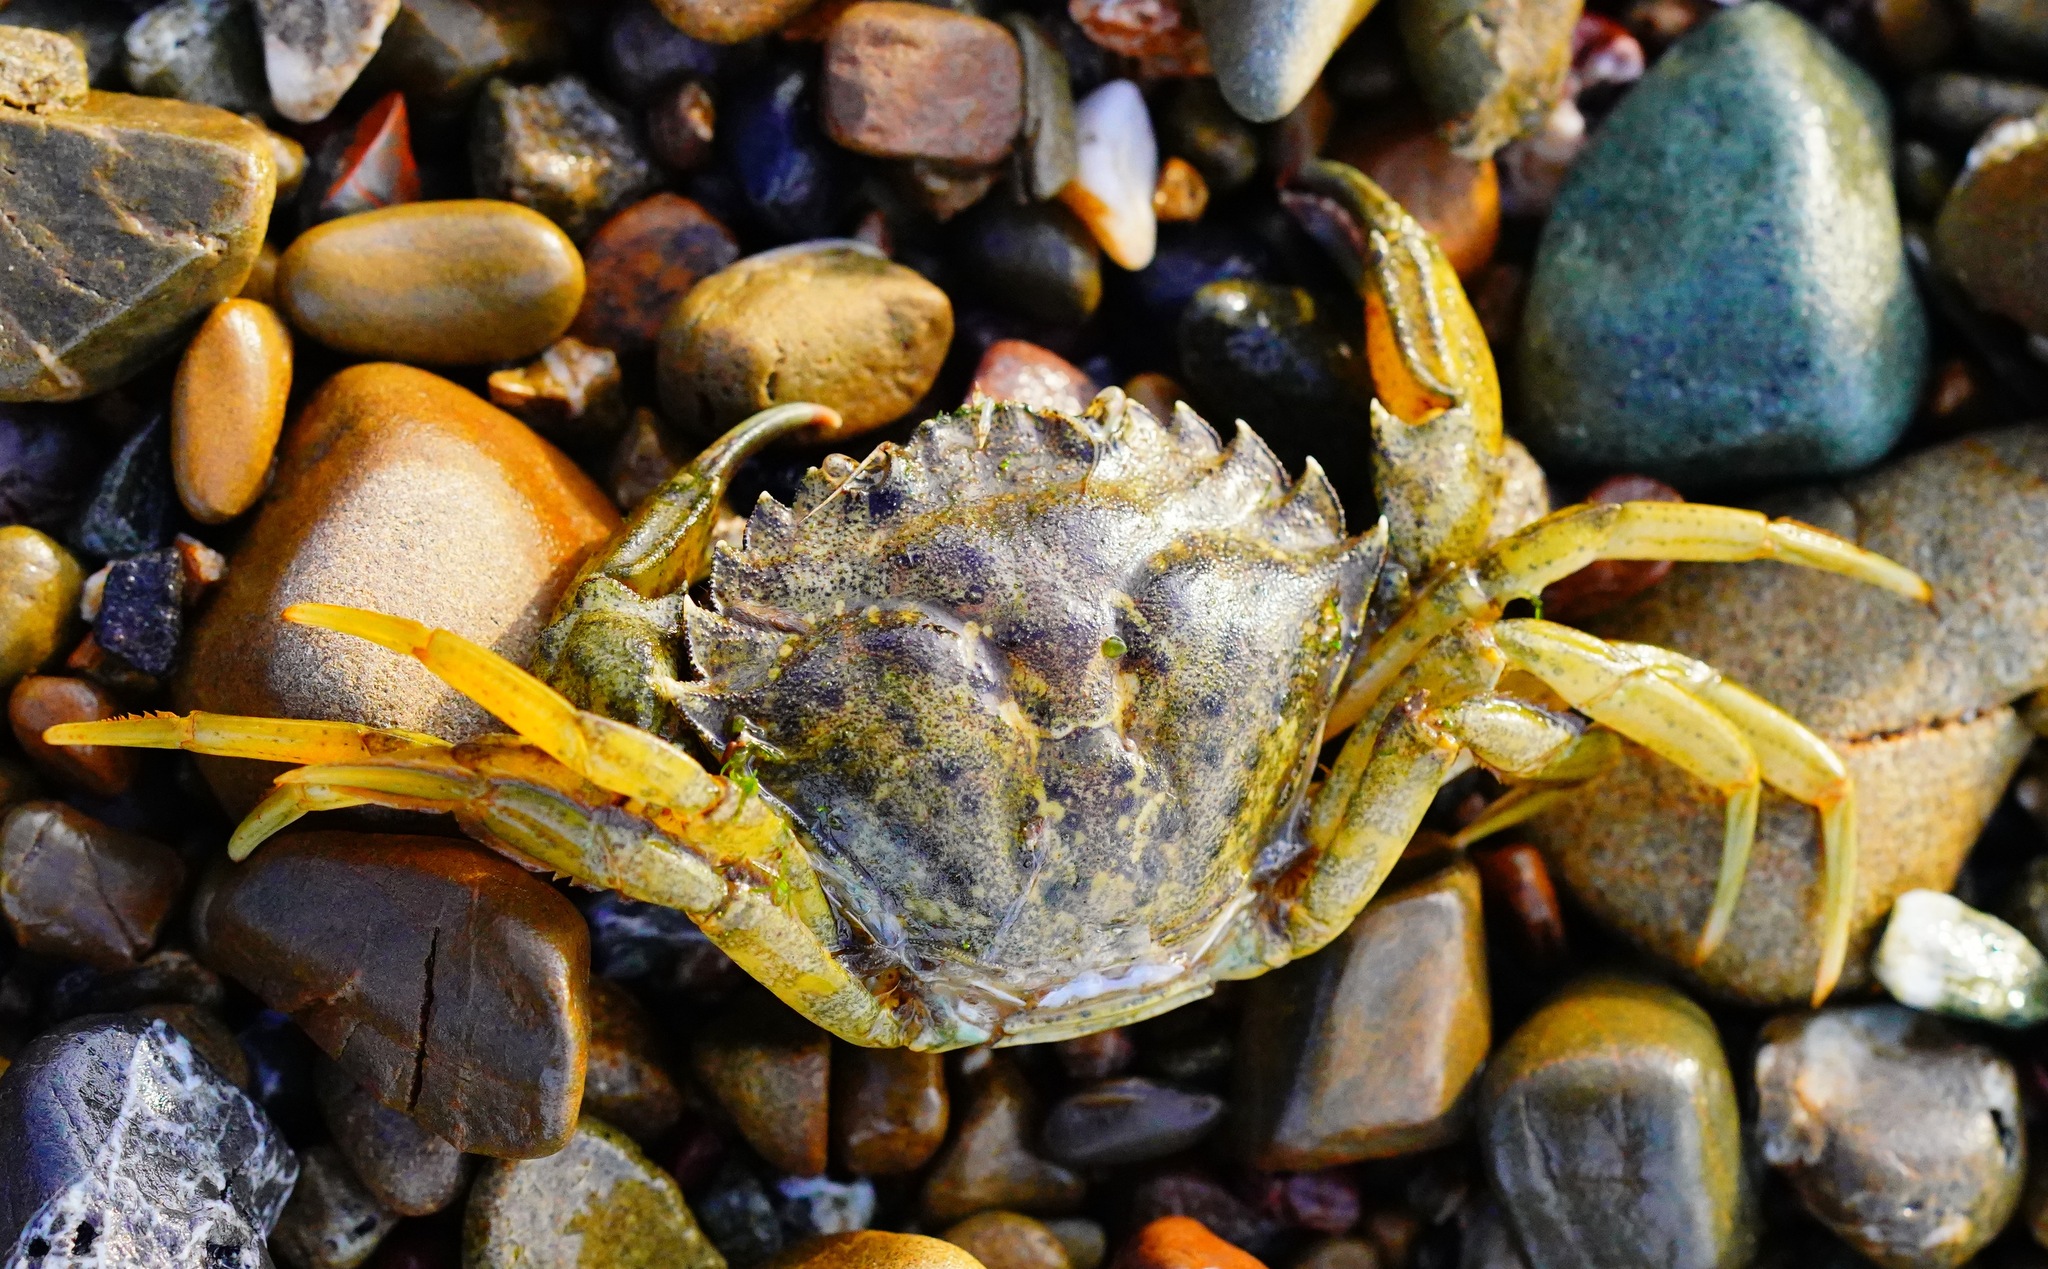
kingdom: Animalia
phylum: Arthropoda
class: Malacostraca
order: Decapoda
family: Carcinidae
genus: Carcinus
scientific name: Carcinus maenas
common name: European green crab
